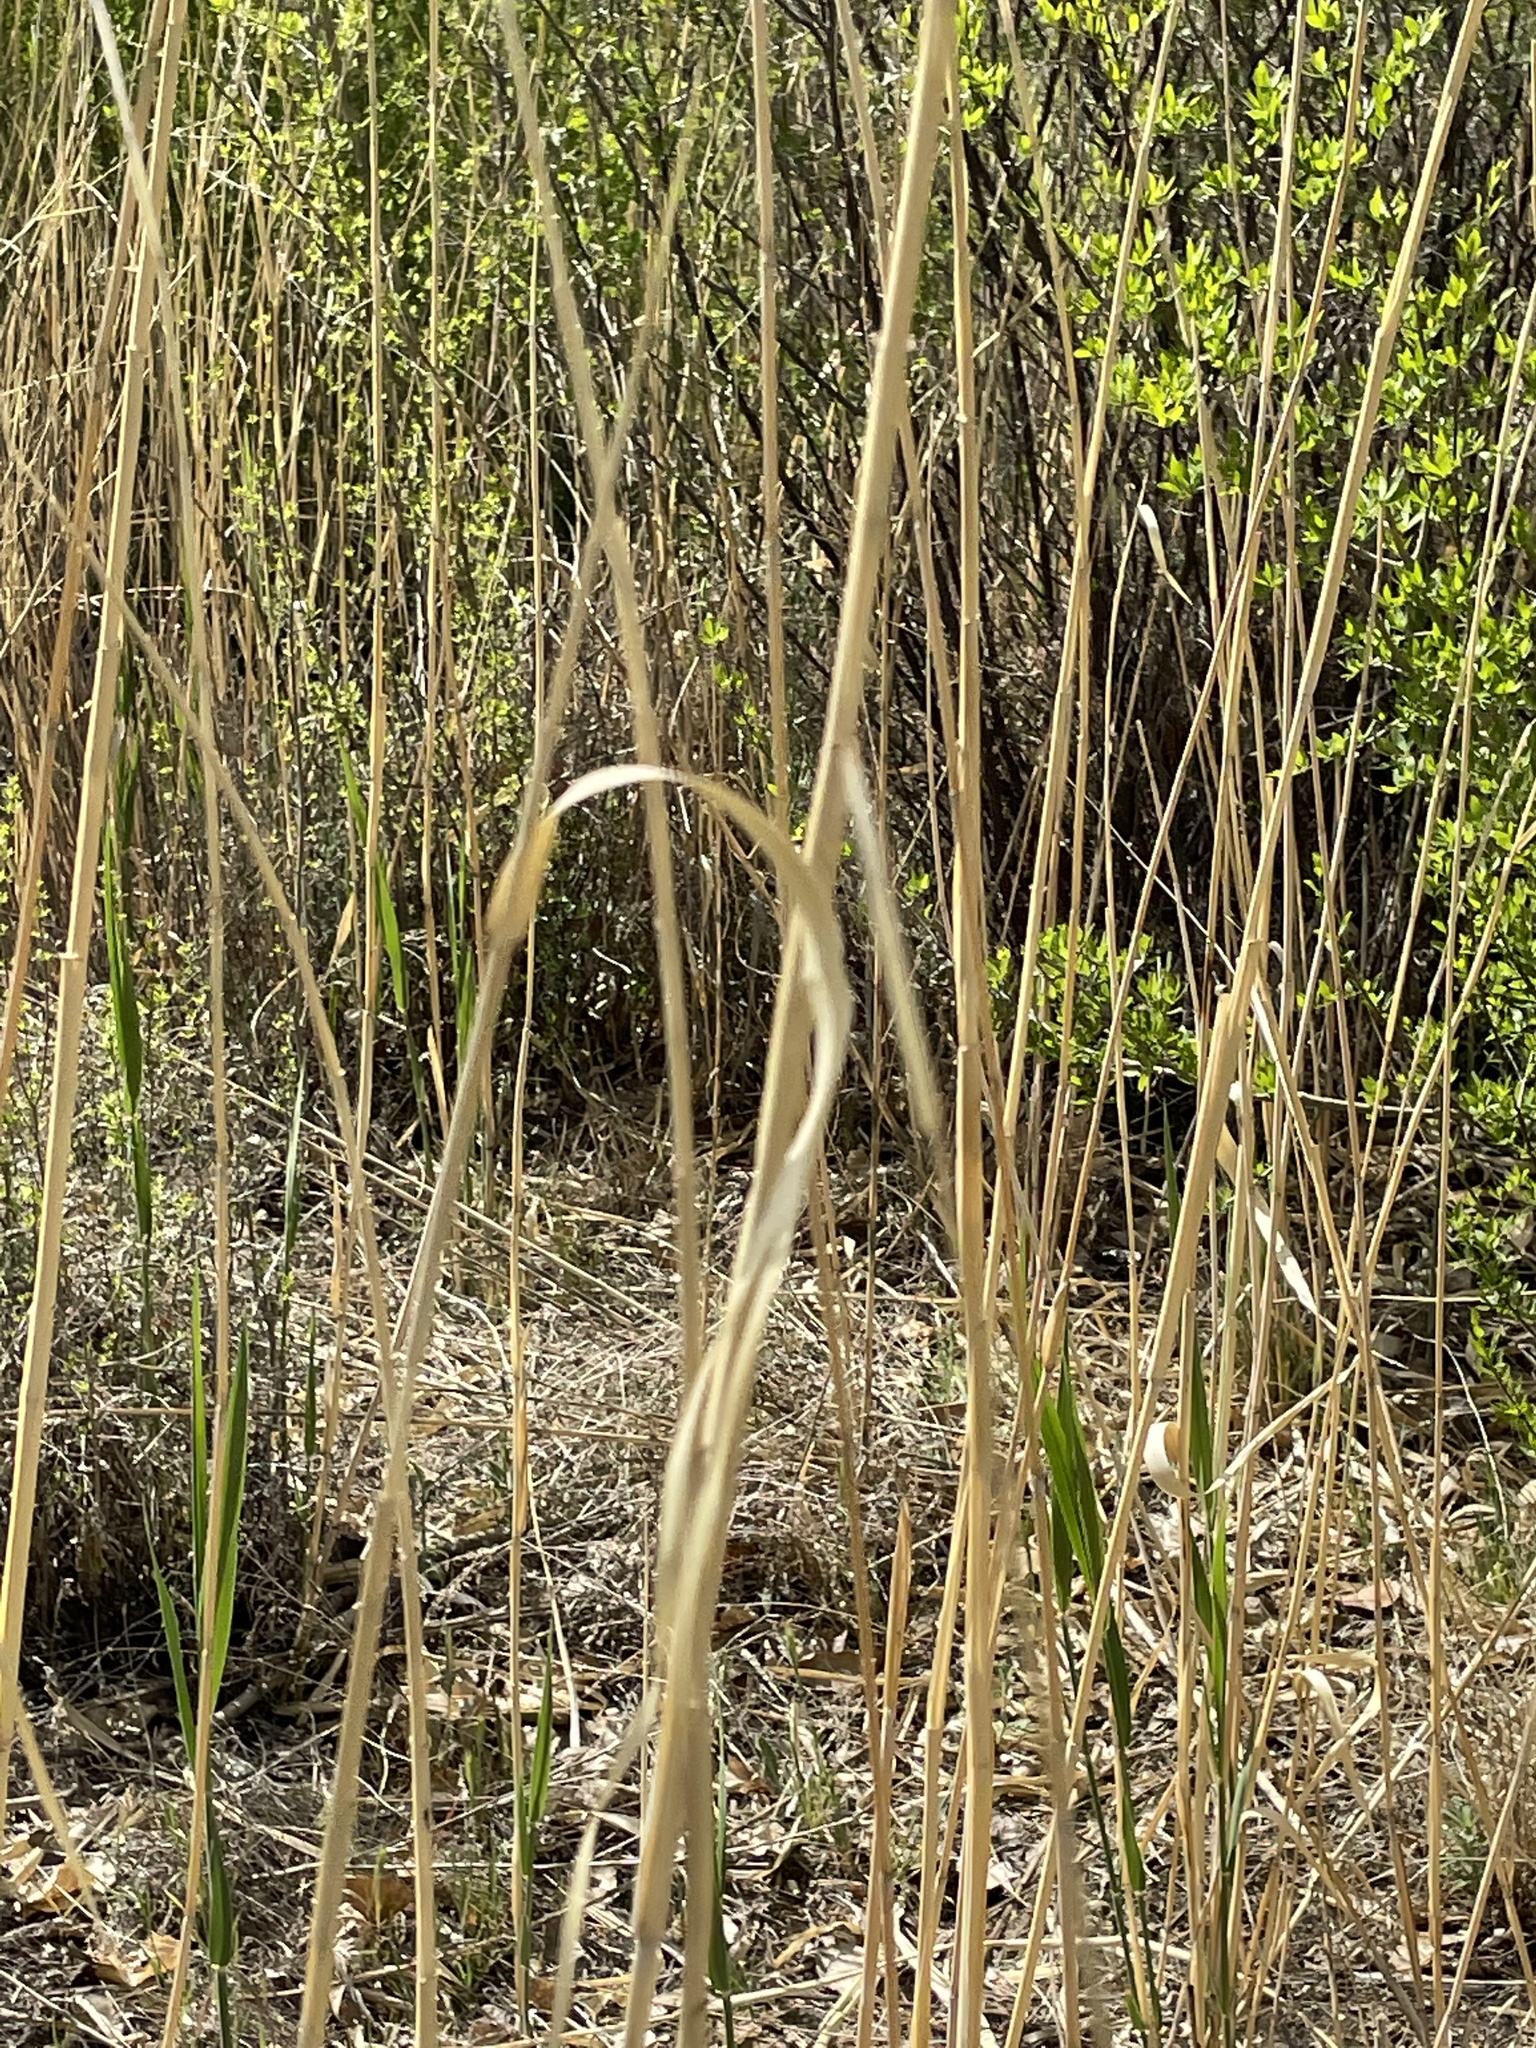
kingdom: Plantae
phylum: Tracheophyta
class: Liliopsida
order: Poales
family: Poaceae
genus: Phragmites
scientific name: Phragmites australis
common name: Common reed
